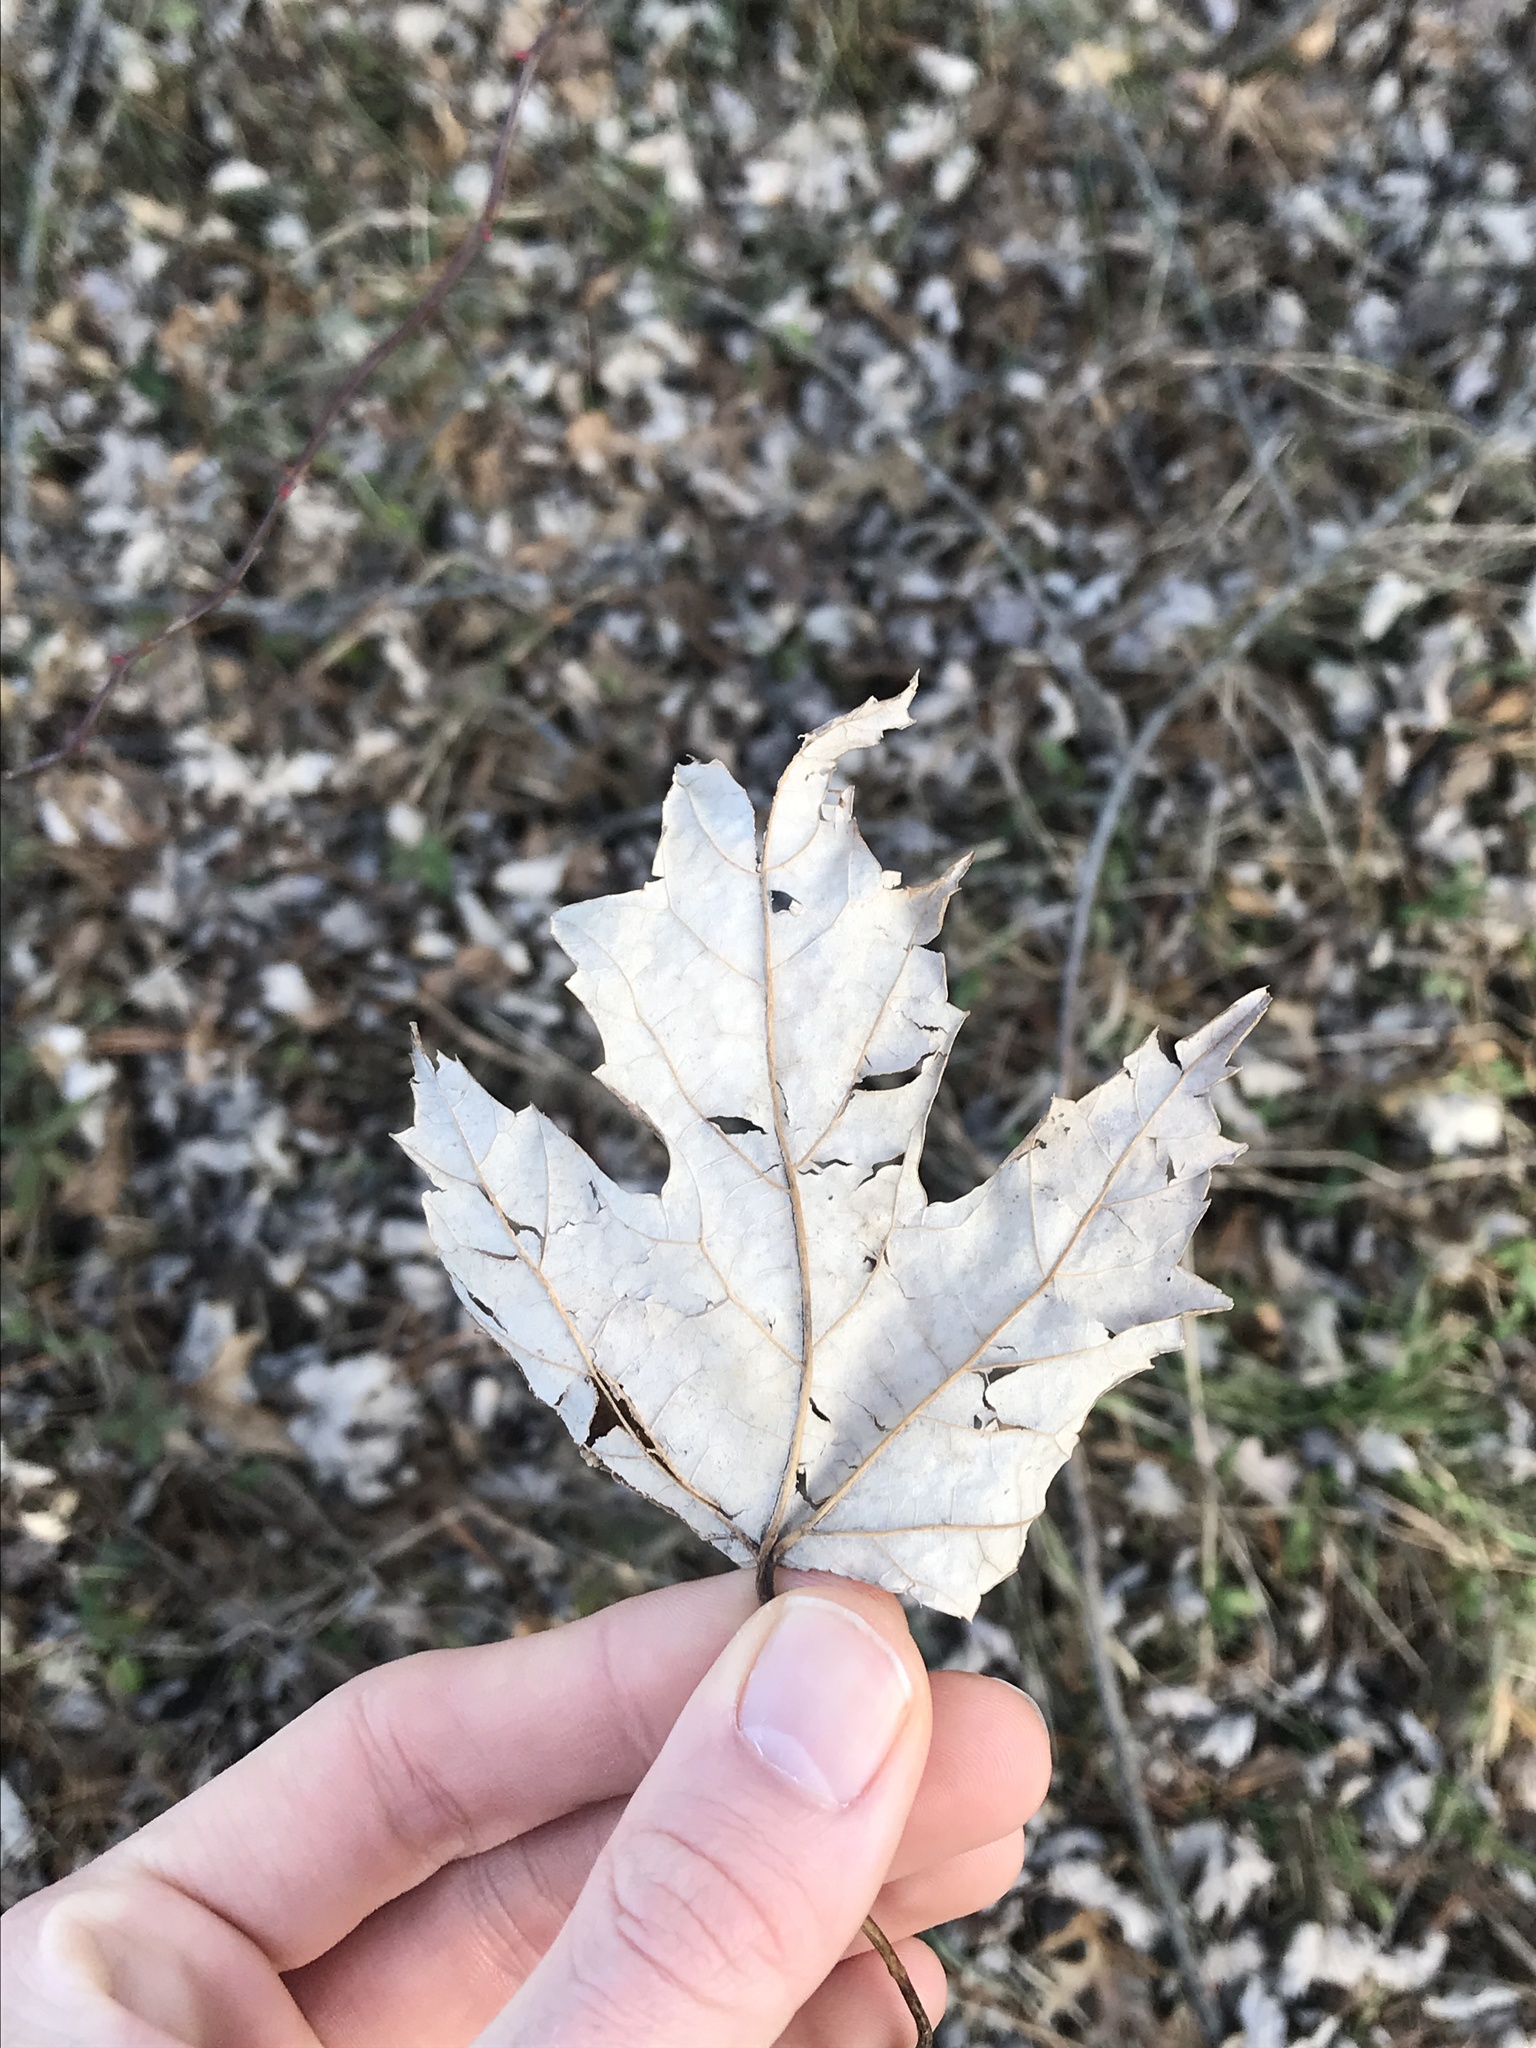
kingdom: Plantae
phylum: Tracheophyta
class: Magnoliopsida
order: Sapindales
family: Sapindaceae
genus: Acer
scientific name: Acer saccharinum
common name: Silver maple
